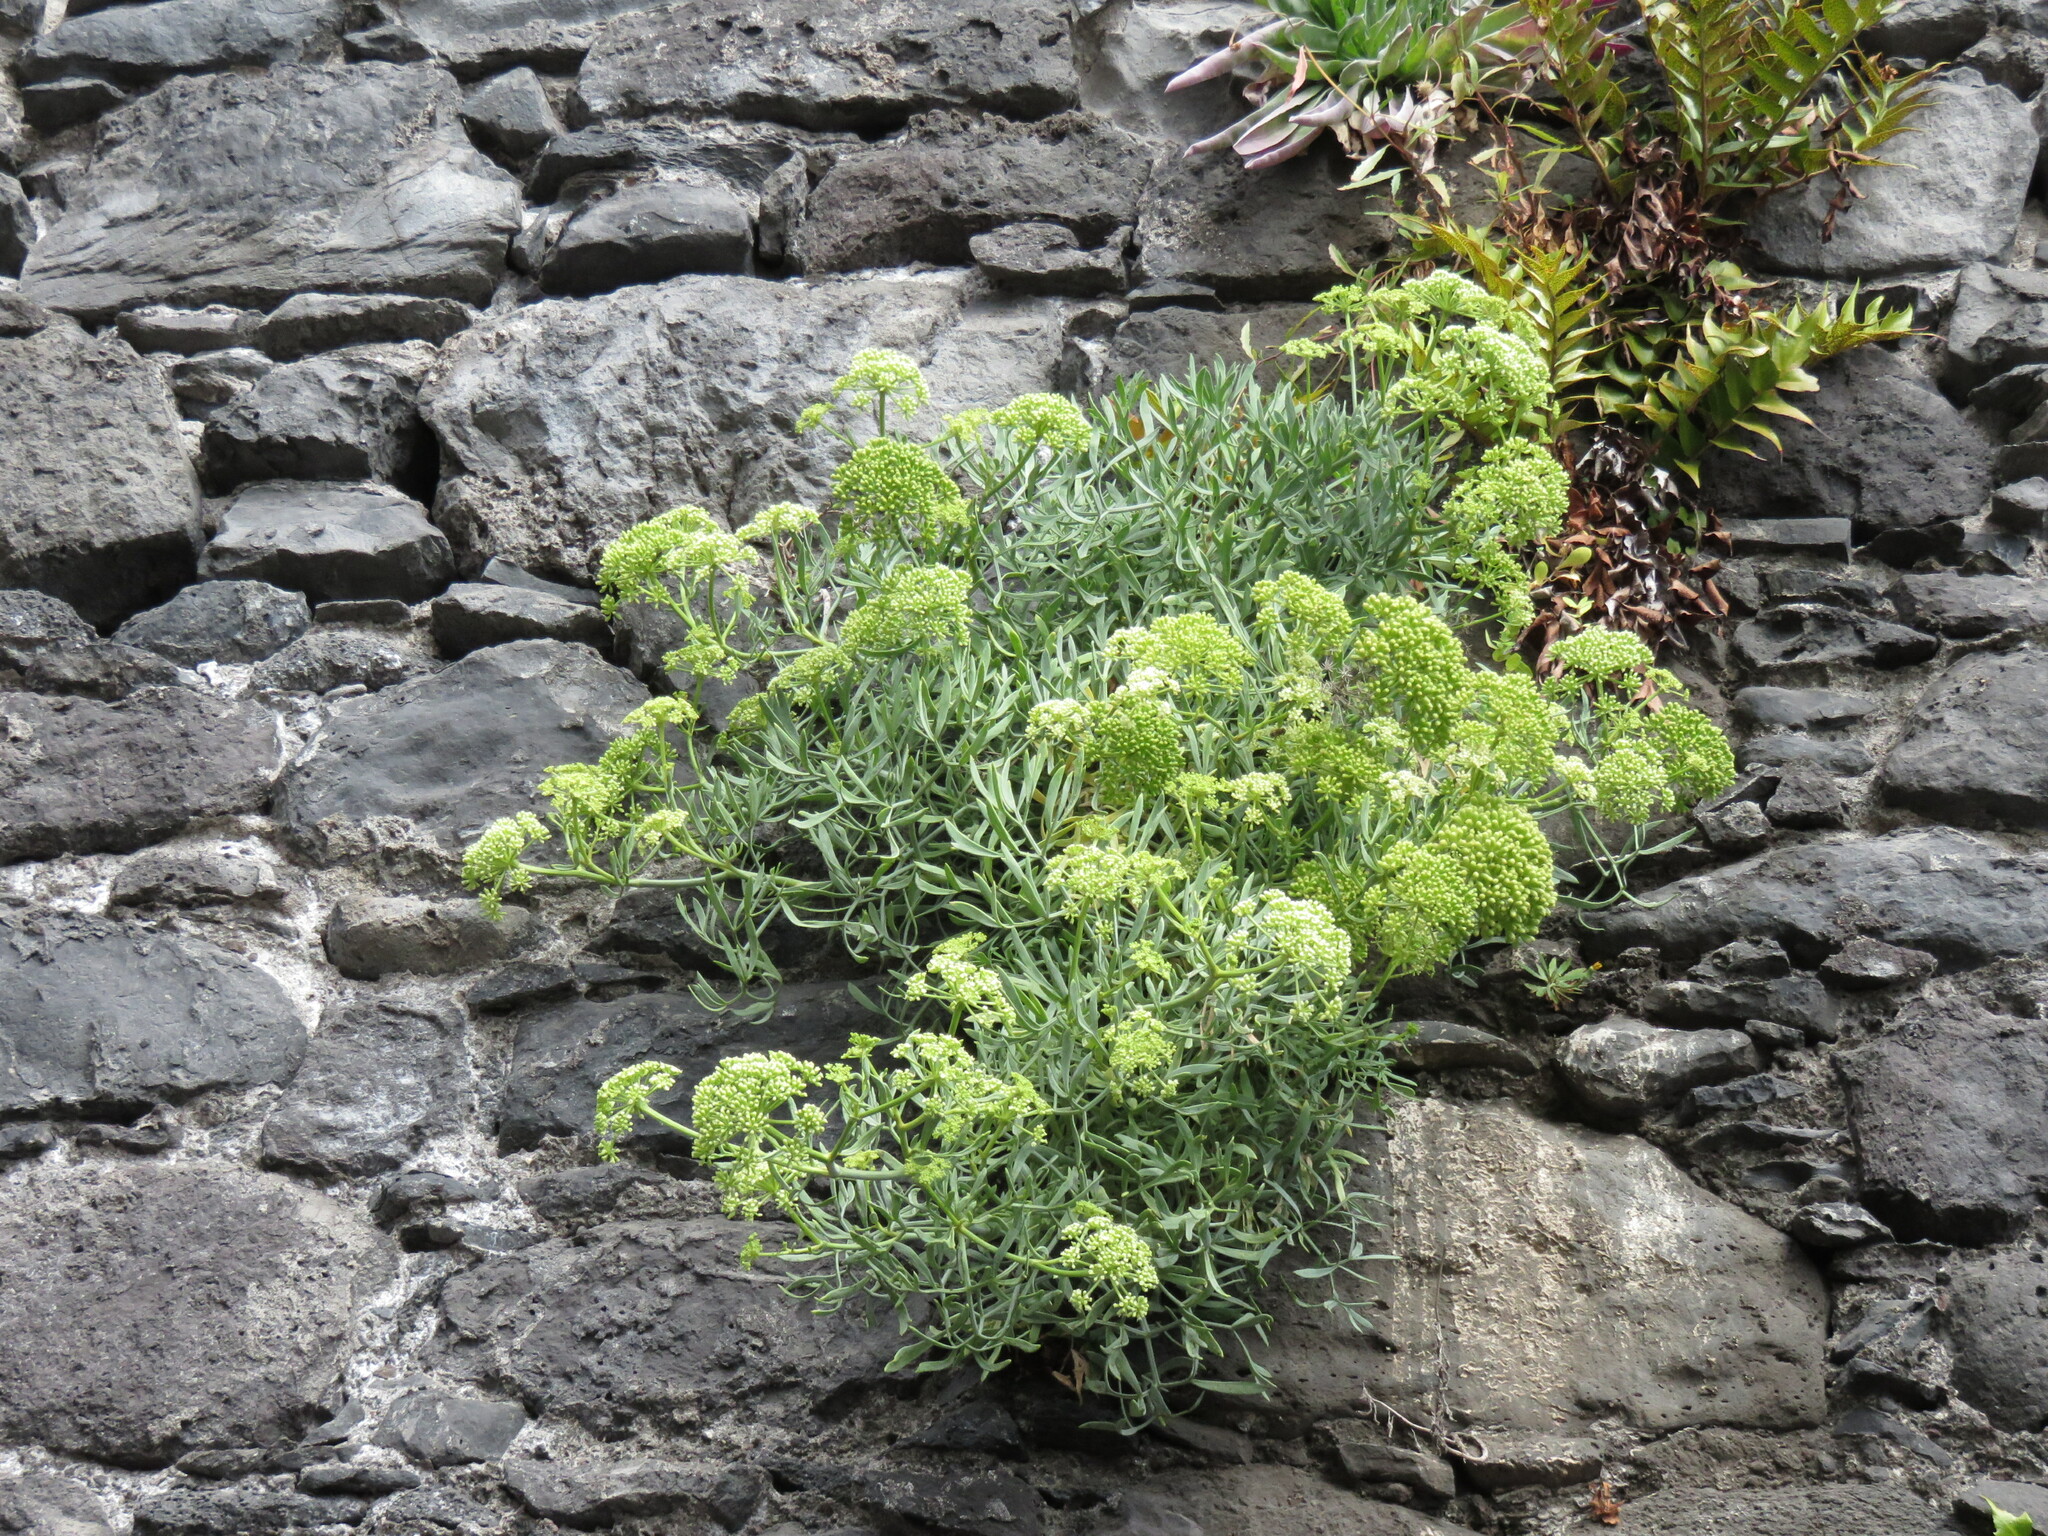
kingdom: Plantae
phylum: Tracheophyta
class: Magnoliopsida
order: Apiales
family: Apiaceae
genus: Crithmum
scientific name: Crithmum maritimum
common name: Rock samphire
